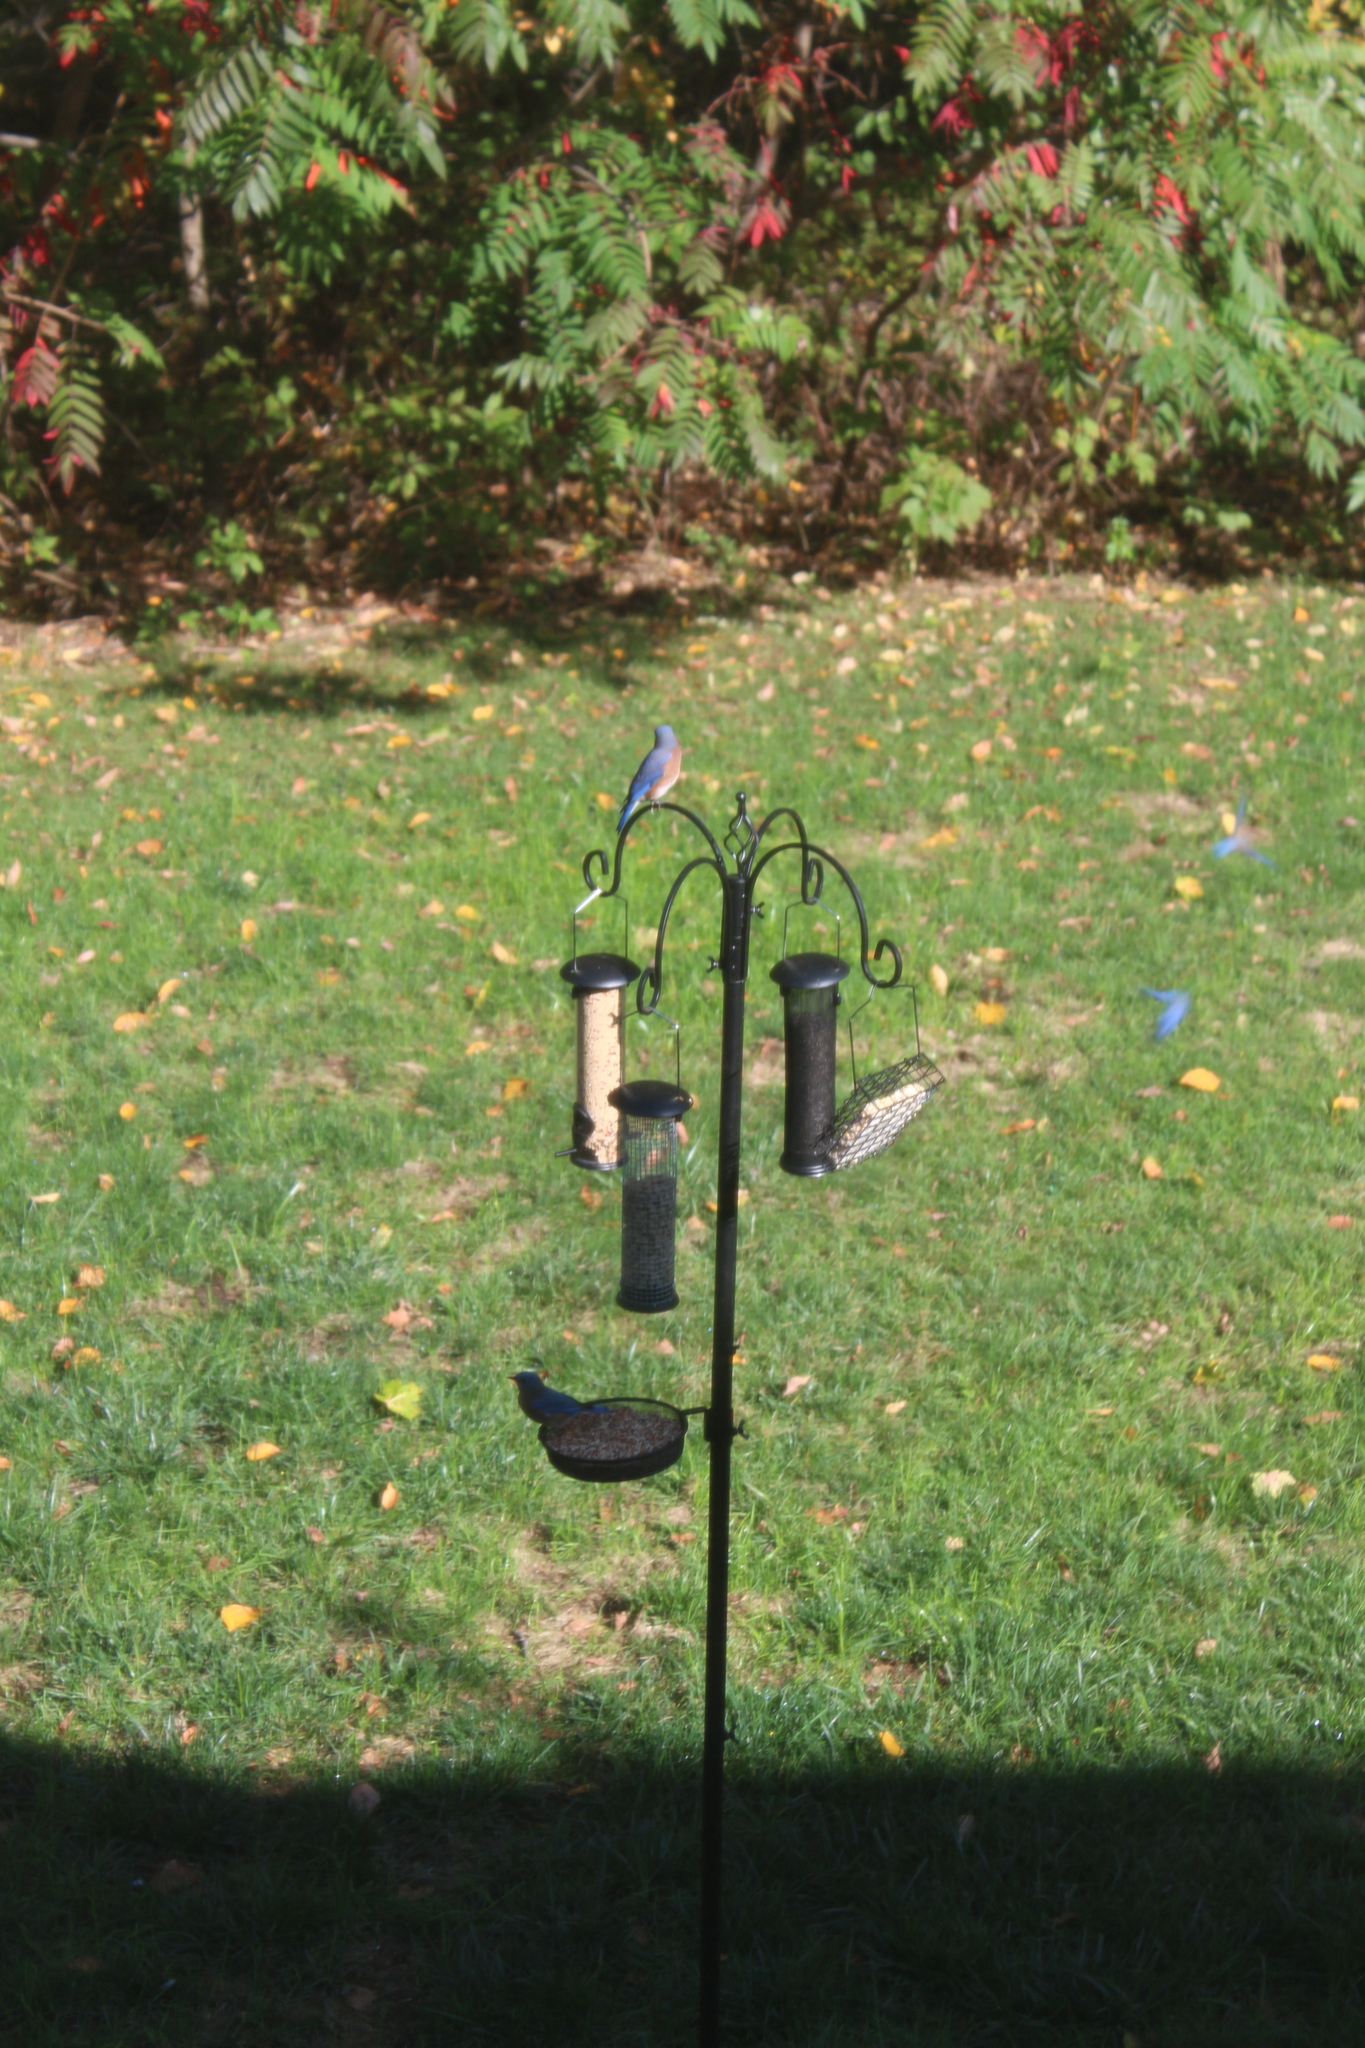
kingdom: Animalia
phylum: Chordata
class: Aves
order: Passeriformes
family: Turdidae
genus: Sialia
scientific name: Sialia sialis
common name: Eastern bluebird
